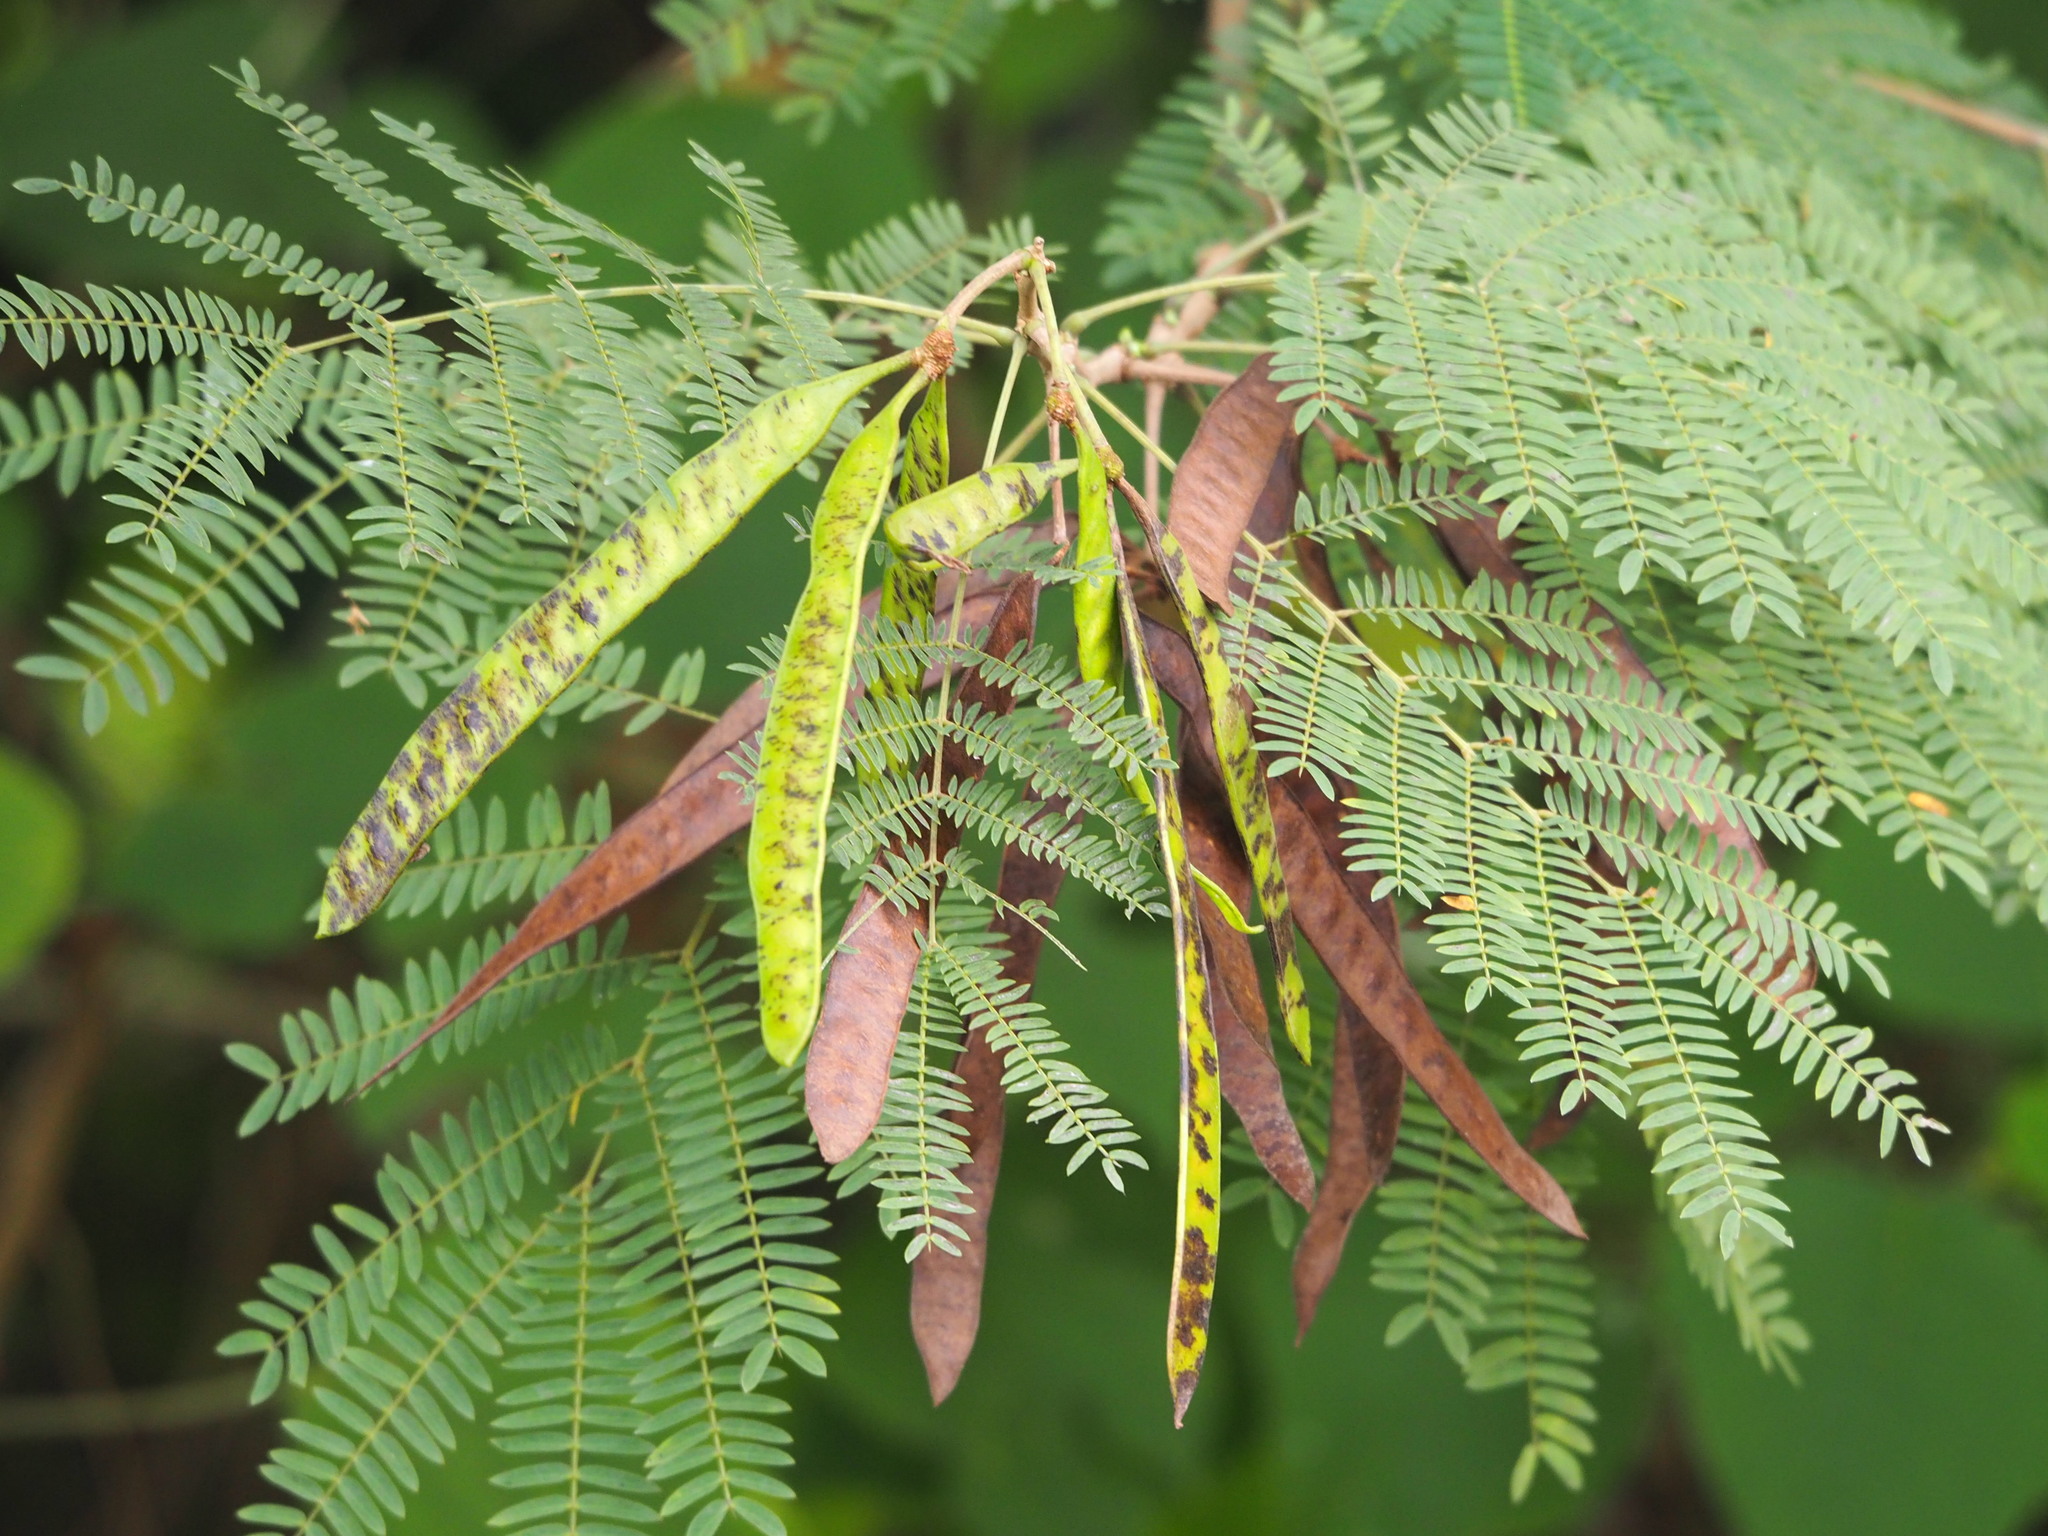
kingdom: Plantae
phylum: Tracheophyta
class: Magnoliopsida
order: Fabales
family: Fabaceae
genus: Leucaena
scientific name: Leucaena leucocephala
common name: White leadtree
